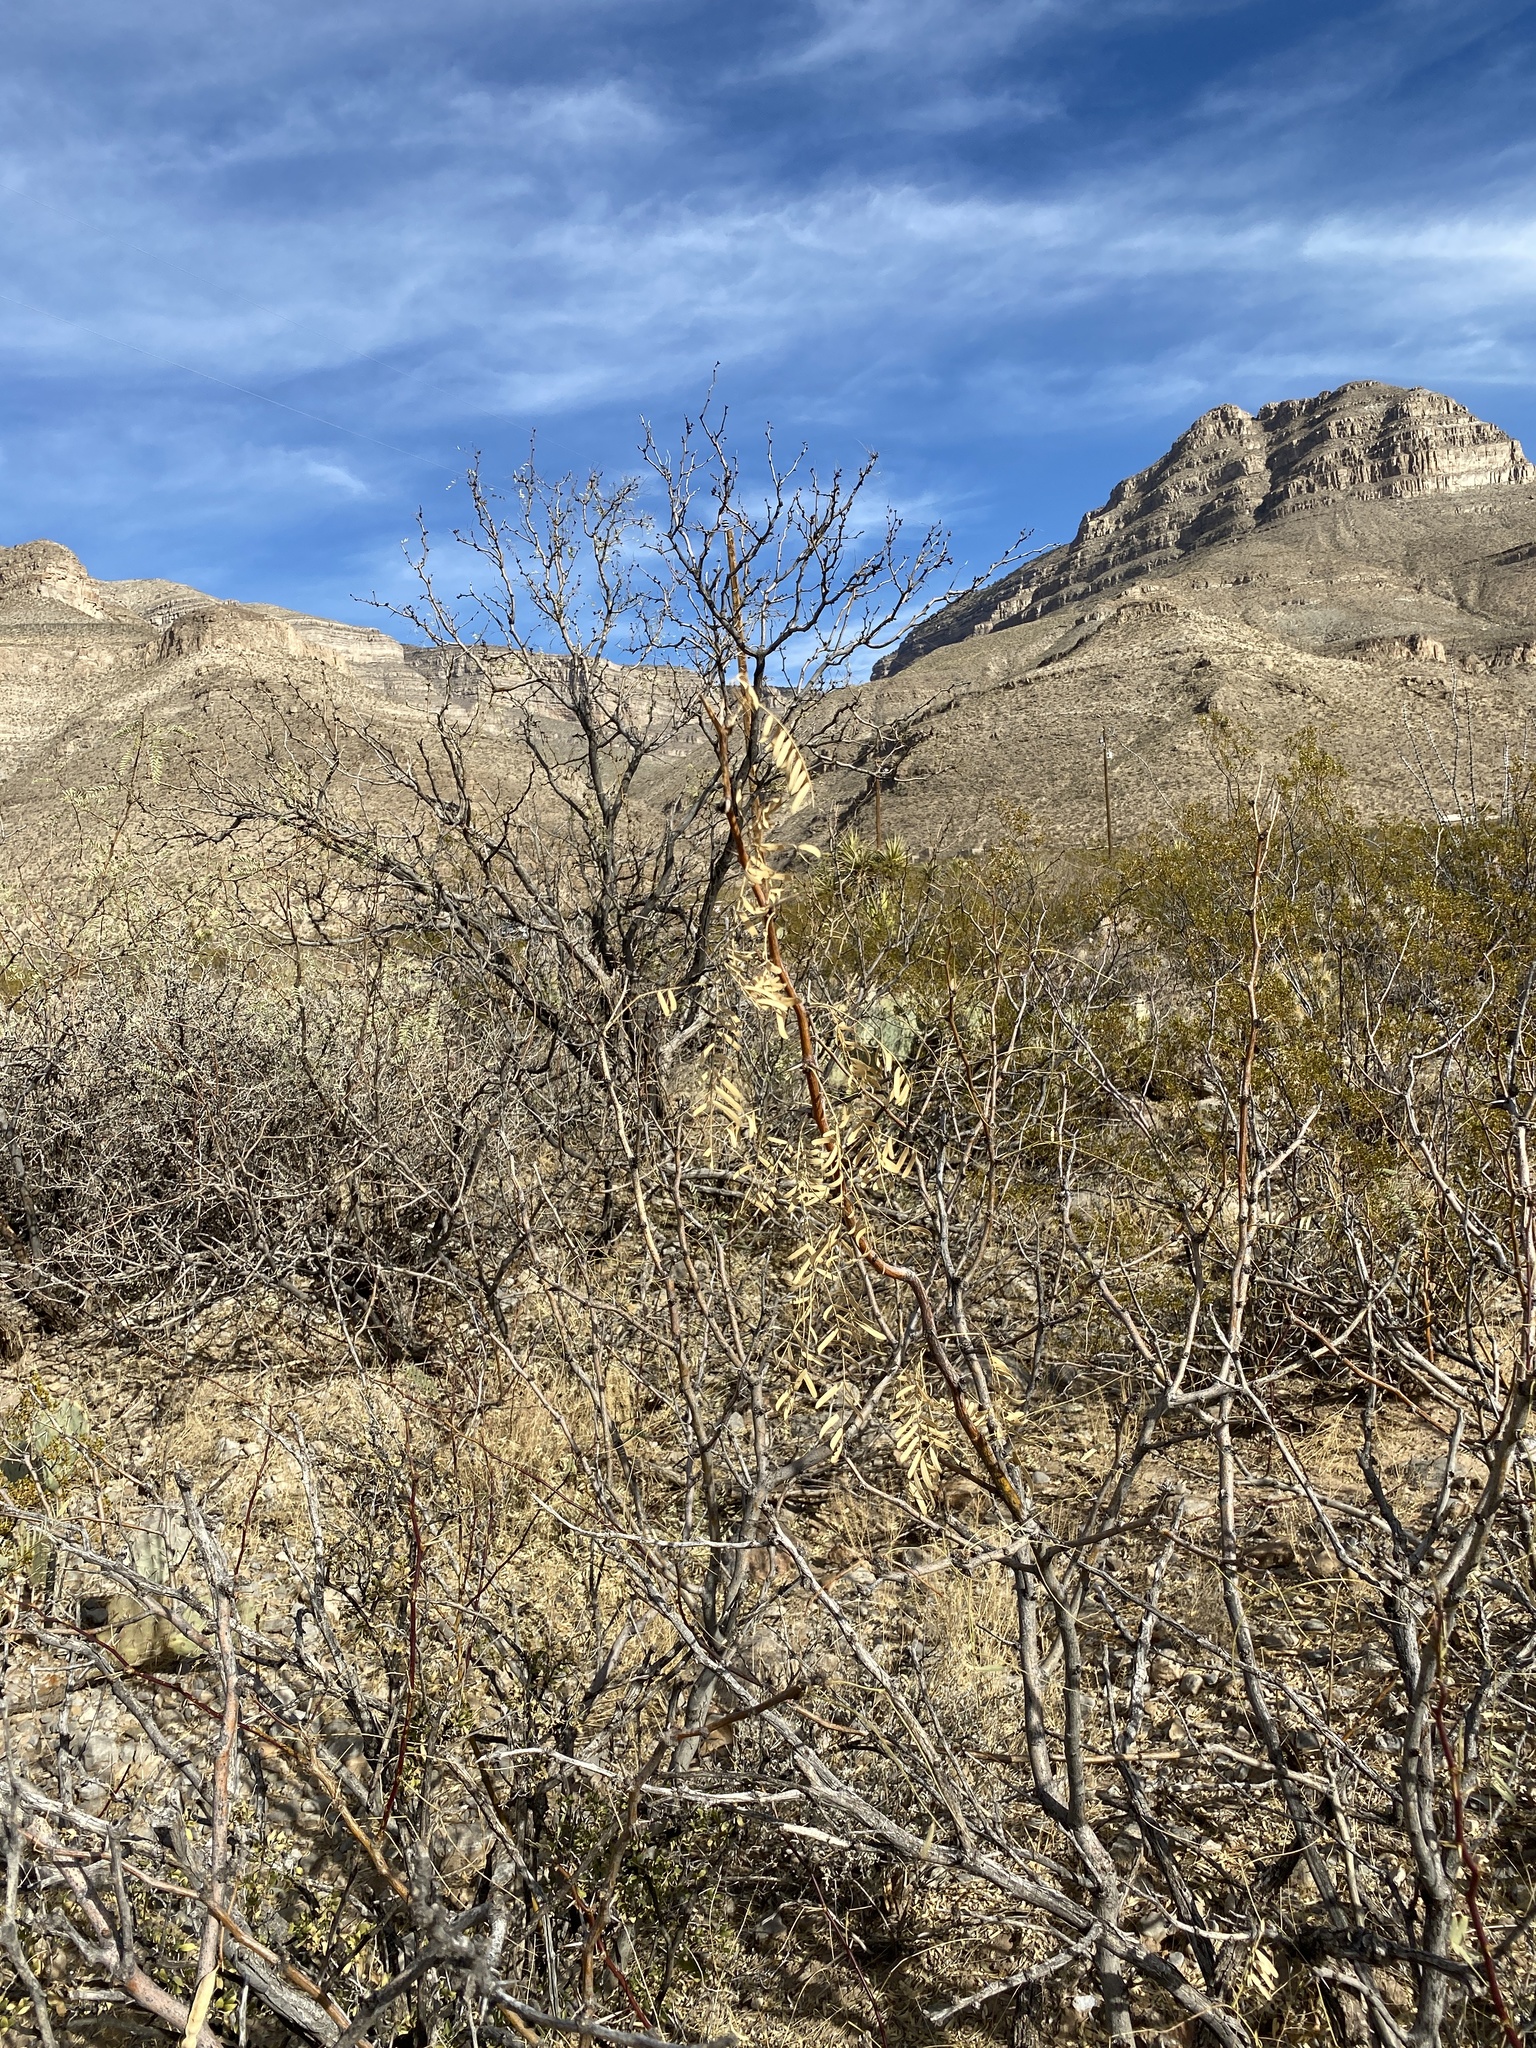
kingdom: Plantae
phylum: Tracheophyta
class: Magnoliopsida
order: Fabales
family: Fabaceae
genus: Prosopis
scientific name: Prosopis glandulosa
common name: Honey mesquite
